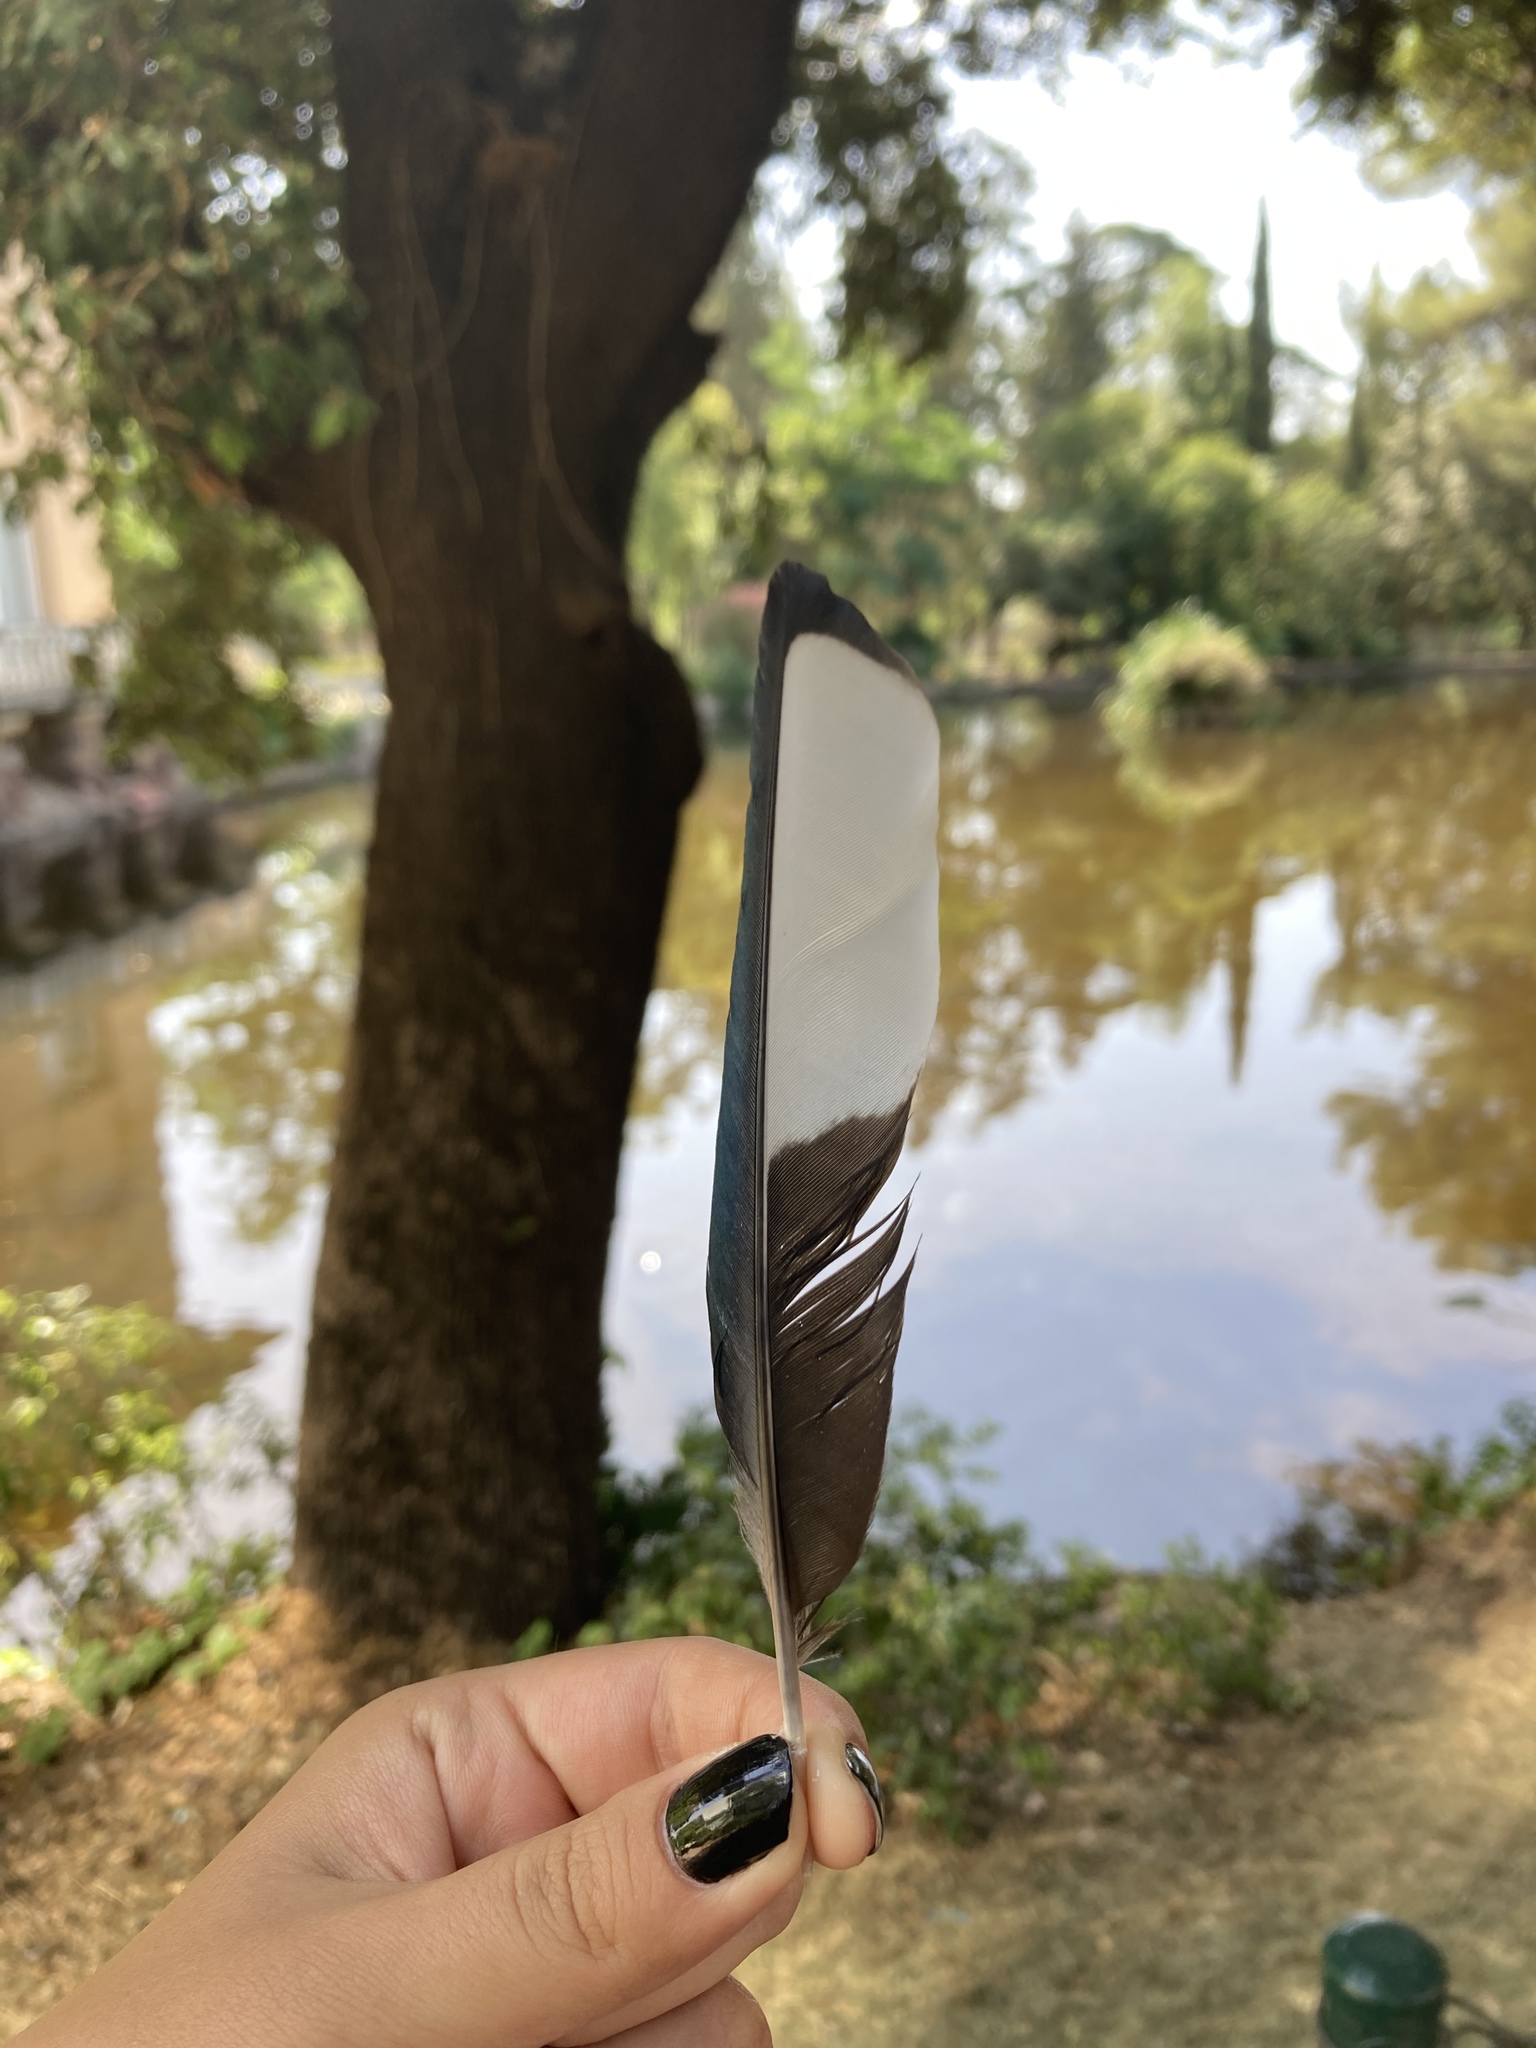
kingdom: Animalia
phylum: Chordata
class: Aves
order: Passeriformes
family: Corvidae
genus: Pica
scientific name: Pica pica
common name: Eurasian magpie
